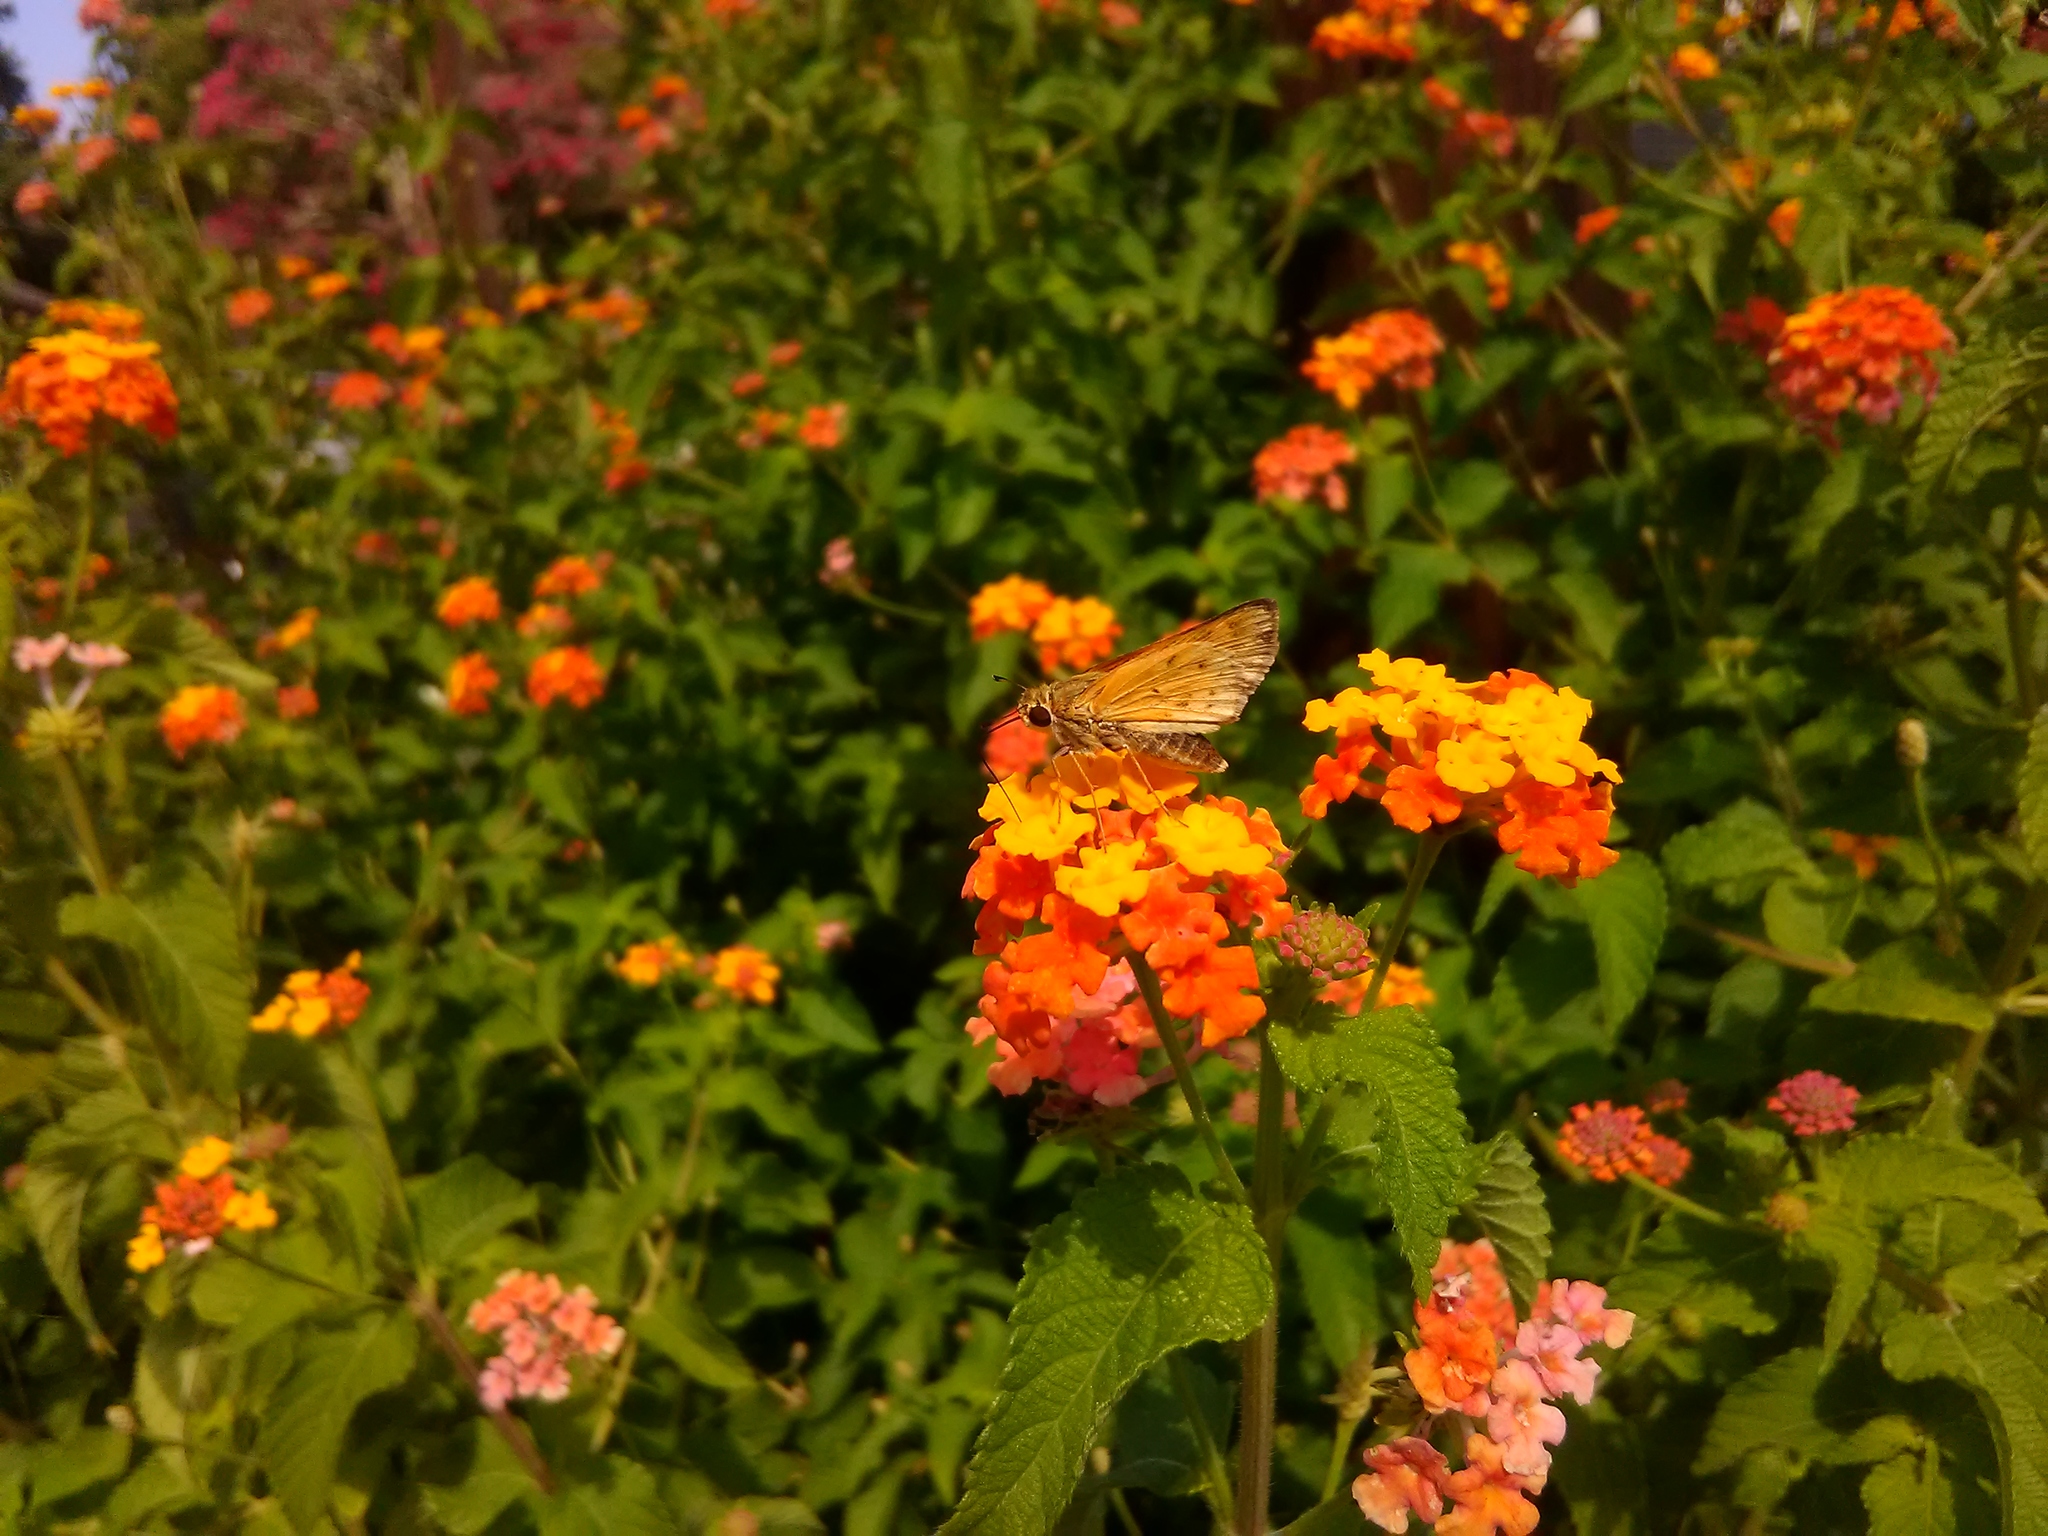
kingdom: Animalia
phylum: Arthropoda
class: Insecta
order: Lepidoptera
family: Hesperiidae
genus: Hylephila
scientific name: Hylephila phyleus
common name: Fiery skipper
